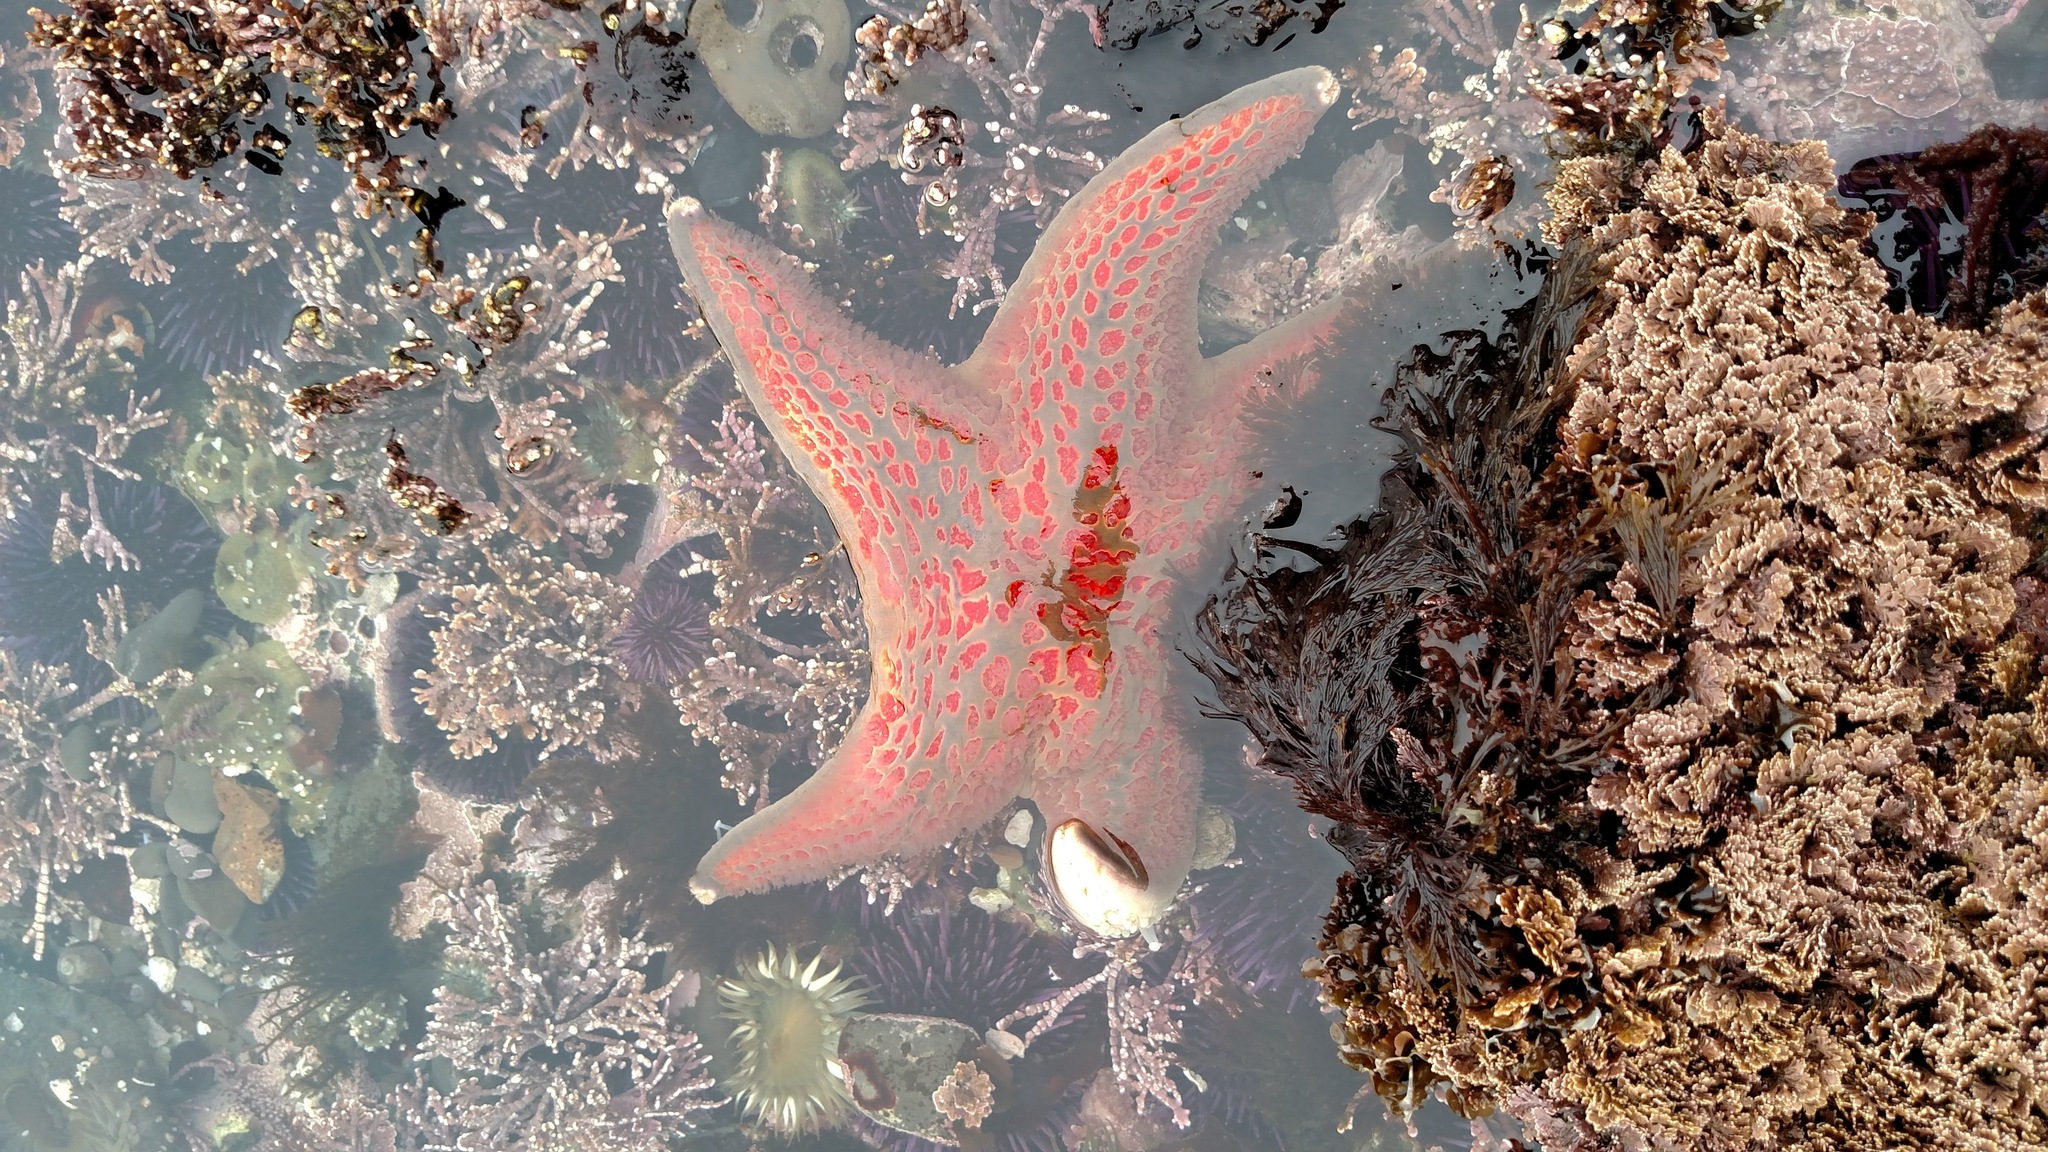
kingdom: Animalia
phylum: Echinodermata
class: Asteroidea
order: Valvatida
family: Asteropseidae
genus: Dermasterias
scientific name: Dermasterias imbricata
